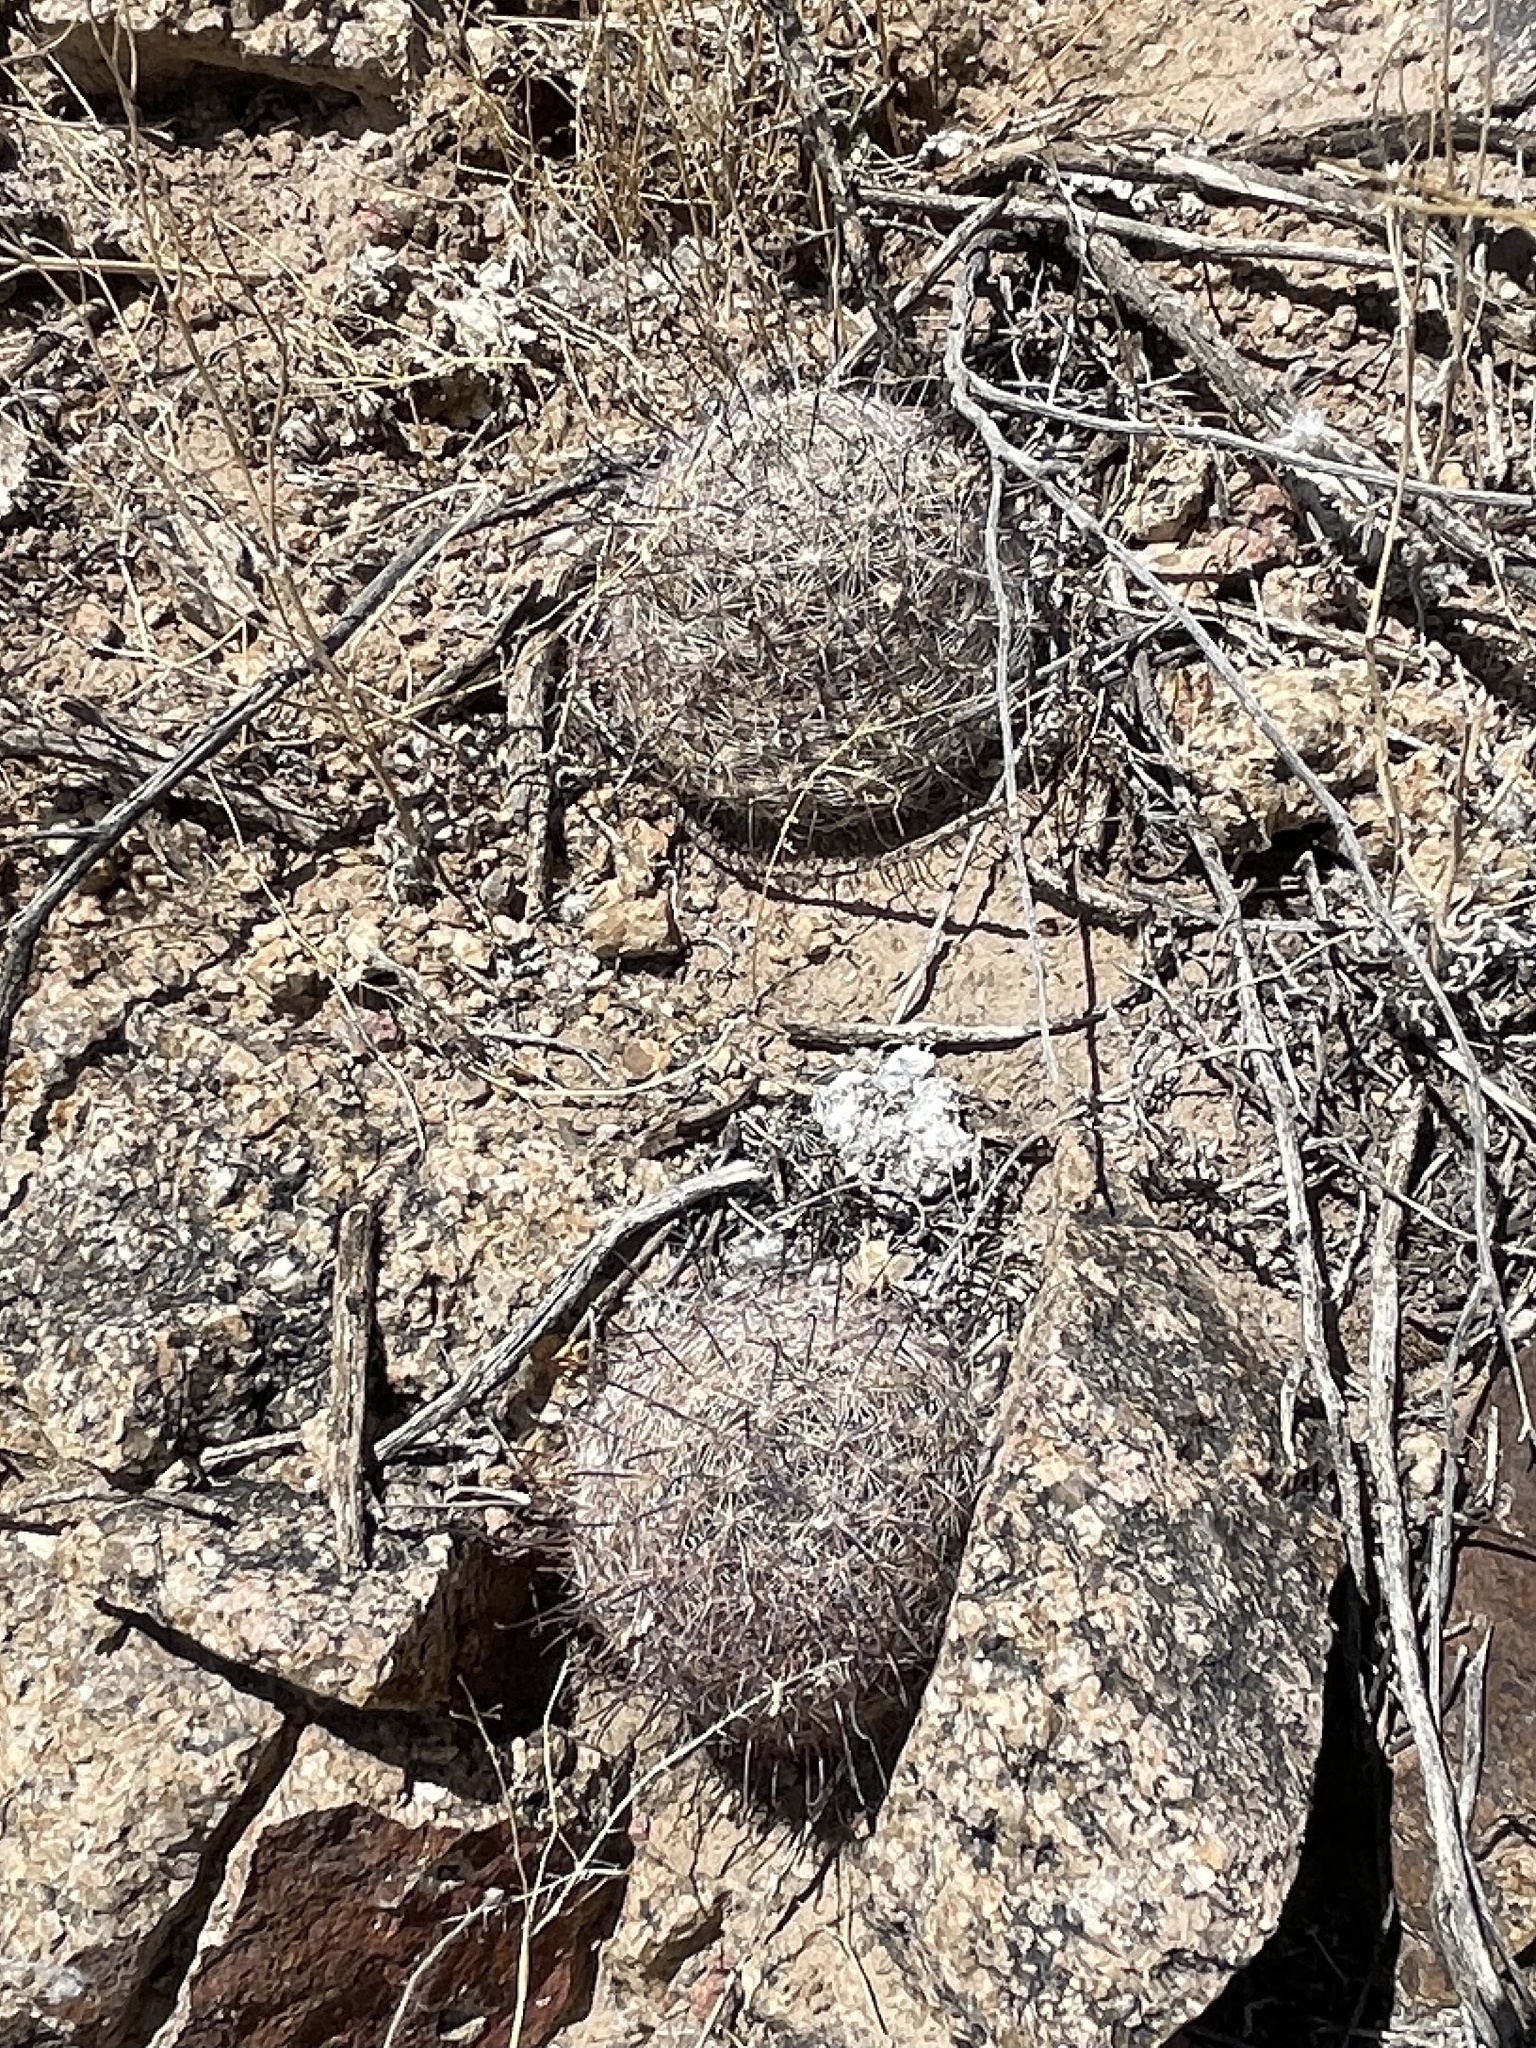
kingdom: Plantae
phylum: Tracheophyta
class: Magnoliopsida
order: Caryophyllales
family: Cactaceae
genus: Cochemiea
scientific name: Cochemiea grahamii
